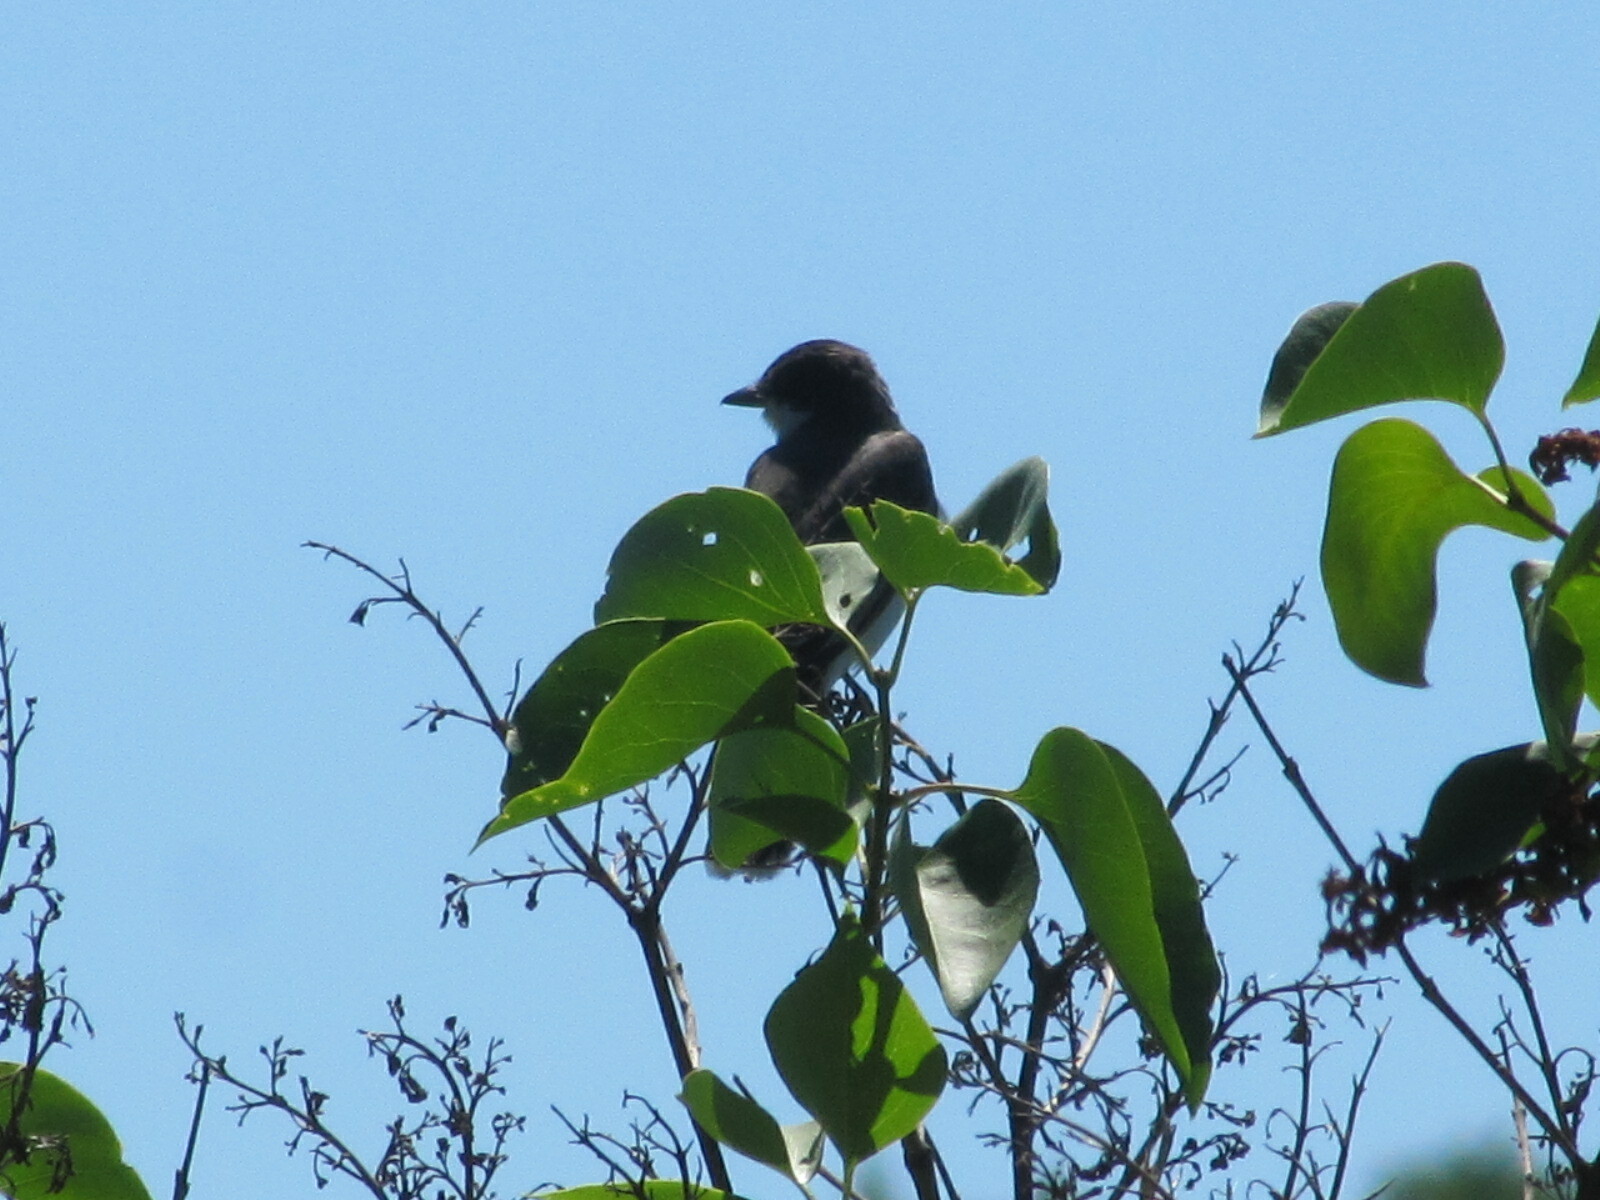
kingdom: Animalia
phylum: Chordata
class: Aves
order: Passeriformes
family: Tyrannidae
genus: Tyrannus
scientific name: Tyrannus tyrannus
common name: Eastern kingbird
